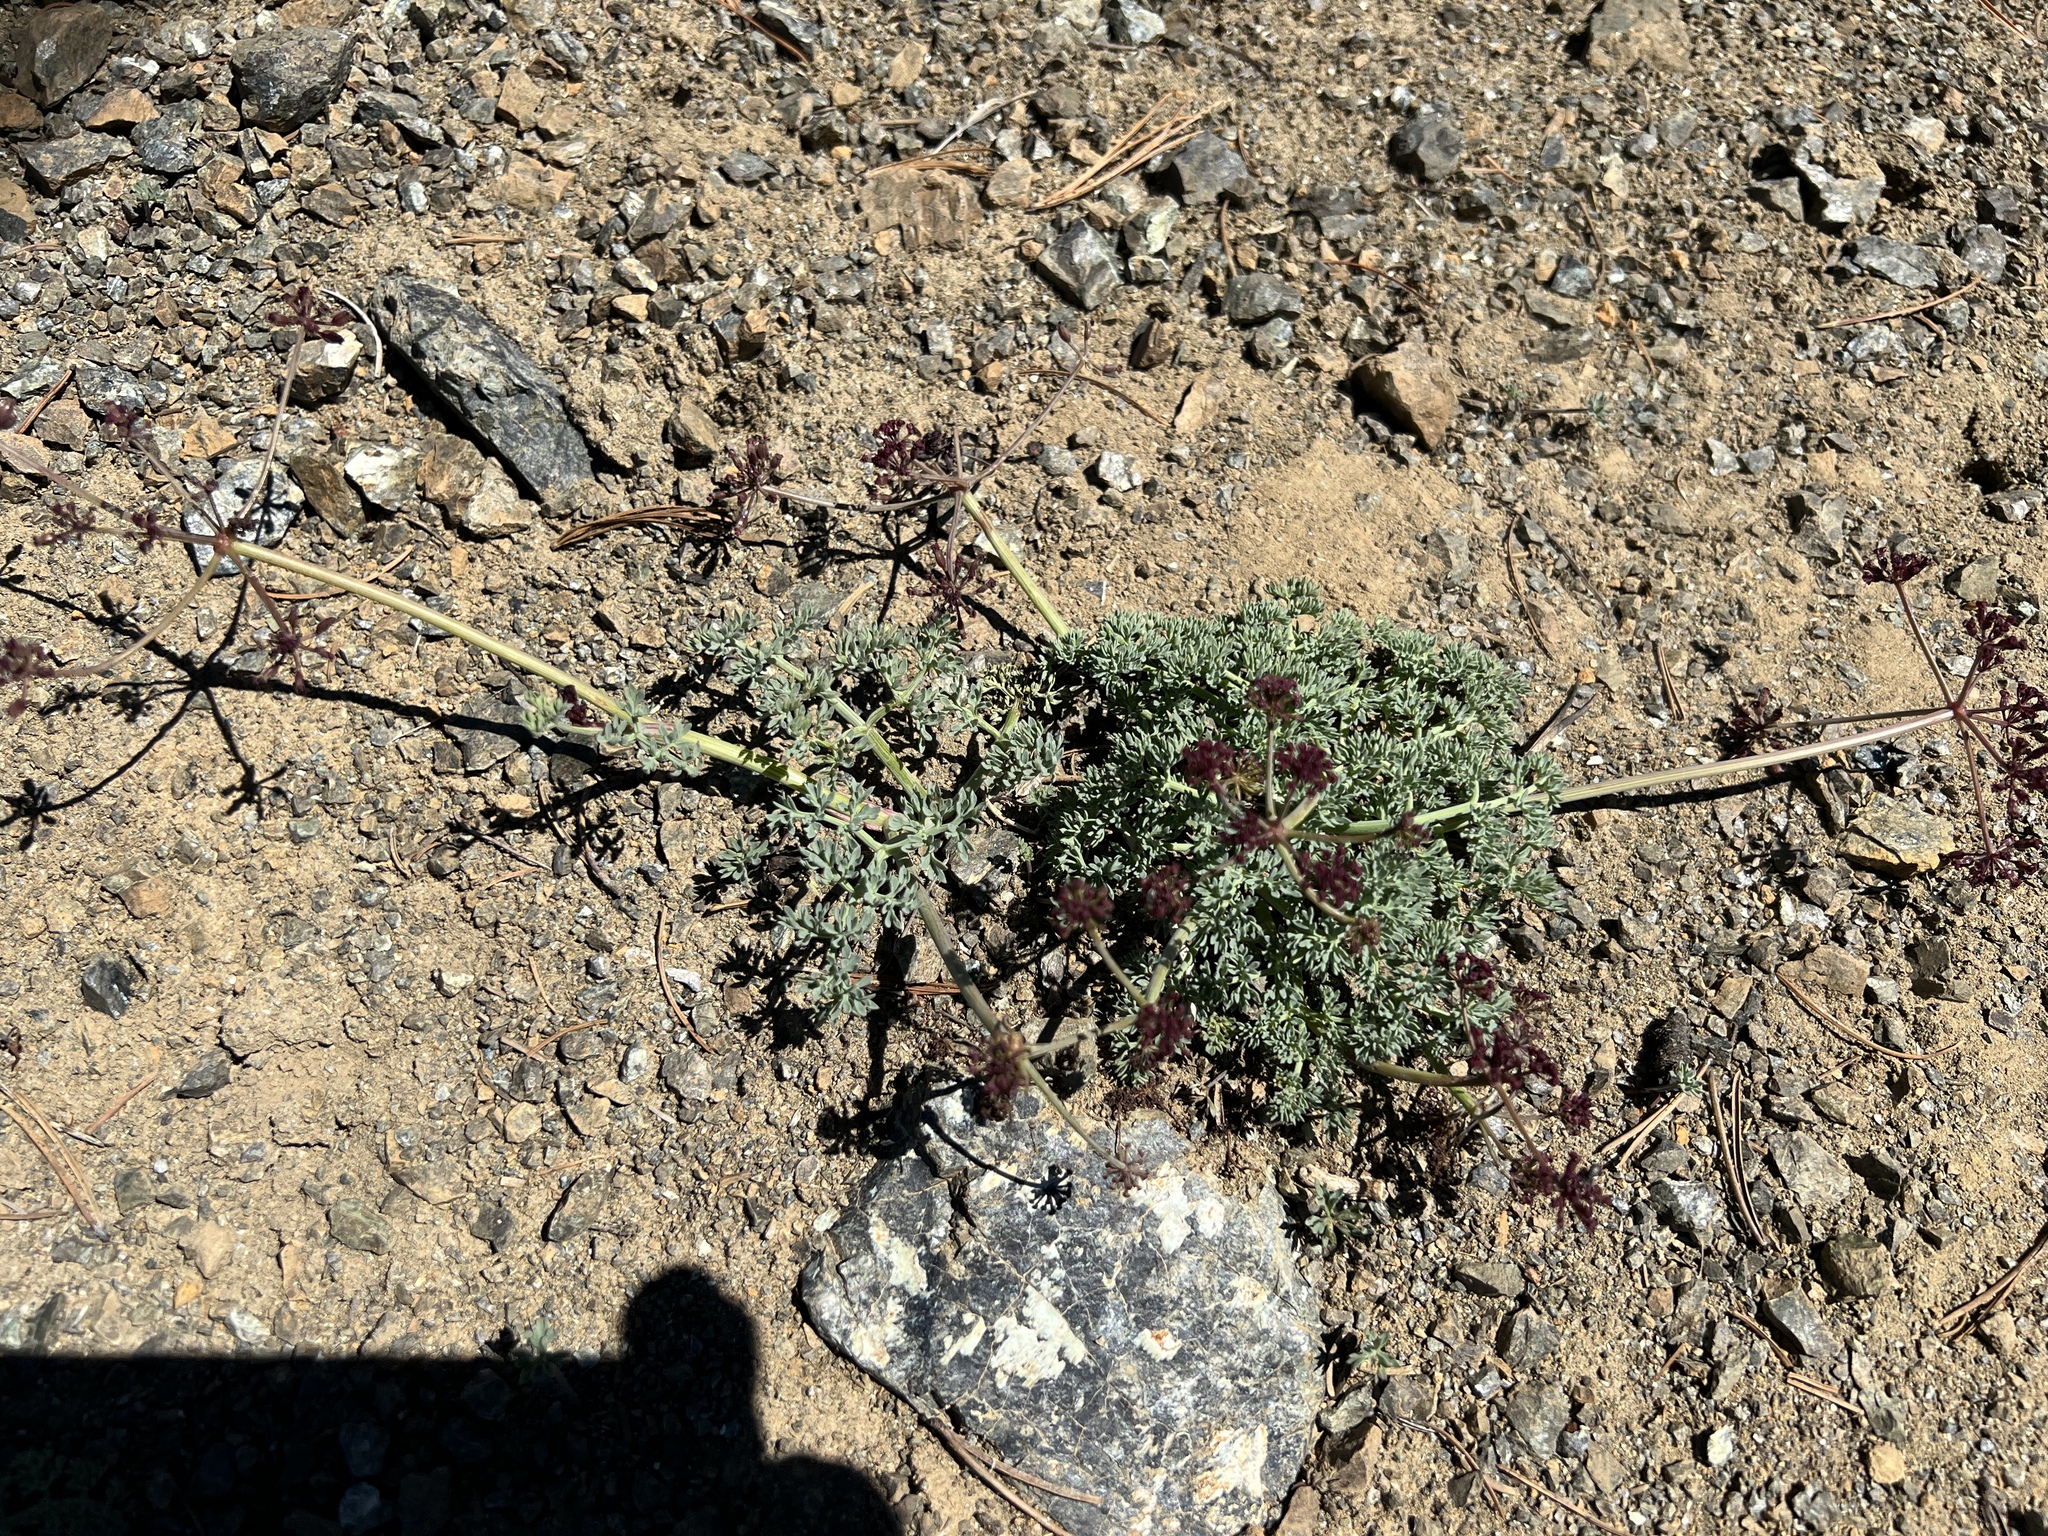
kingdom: Plantae
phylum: Tracheophyta
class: Magnoliopsida
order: Apiales
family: Apiaceae
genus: Lomatium
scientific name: Lomatium cuspidatum
